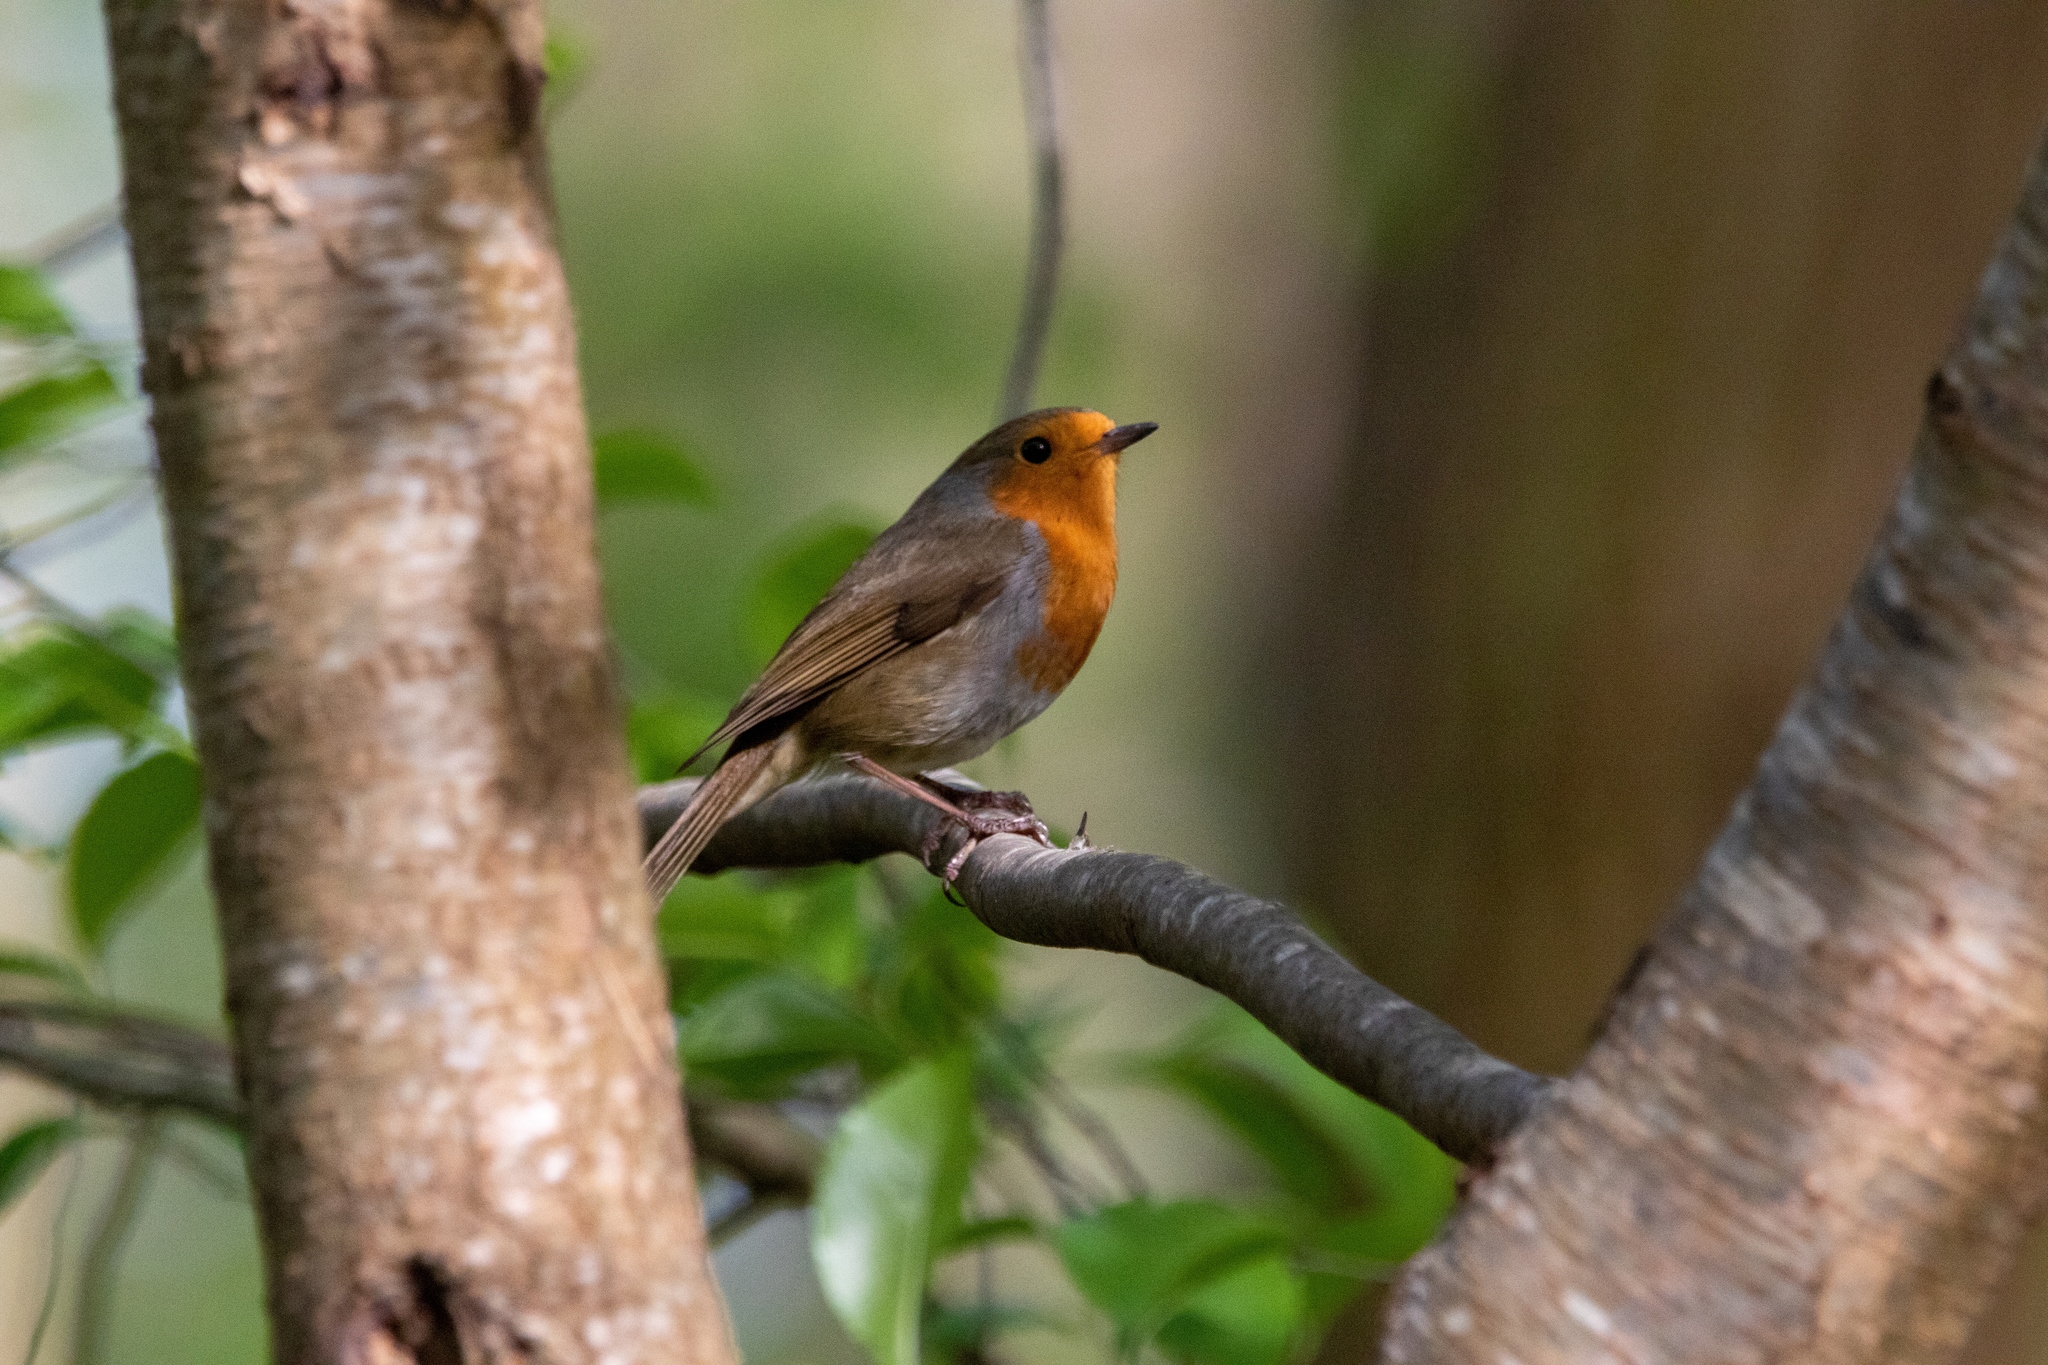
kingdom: Animalia
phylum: Chordata
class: Aves
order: Passeriformes
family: Muscicapidae
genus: Erithacus
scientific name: Erithacus rubecula
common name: European robin
